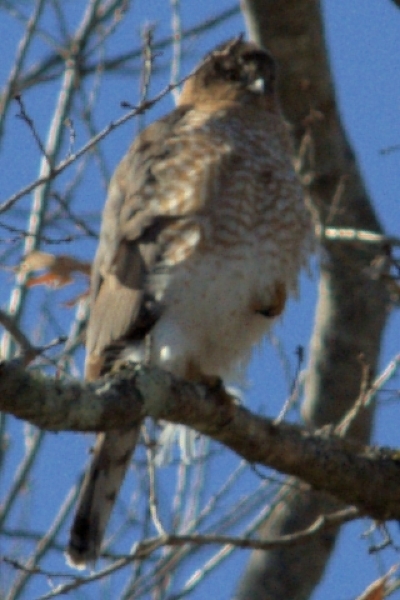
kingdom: Animalia
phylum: Chordata
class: Aves
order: Accipitriformes
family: Accipitridae
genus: Accipiter
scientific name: Accipiter cooperii
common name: Cooper's hawk
